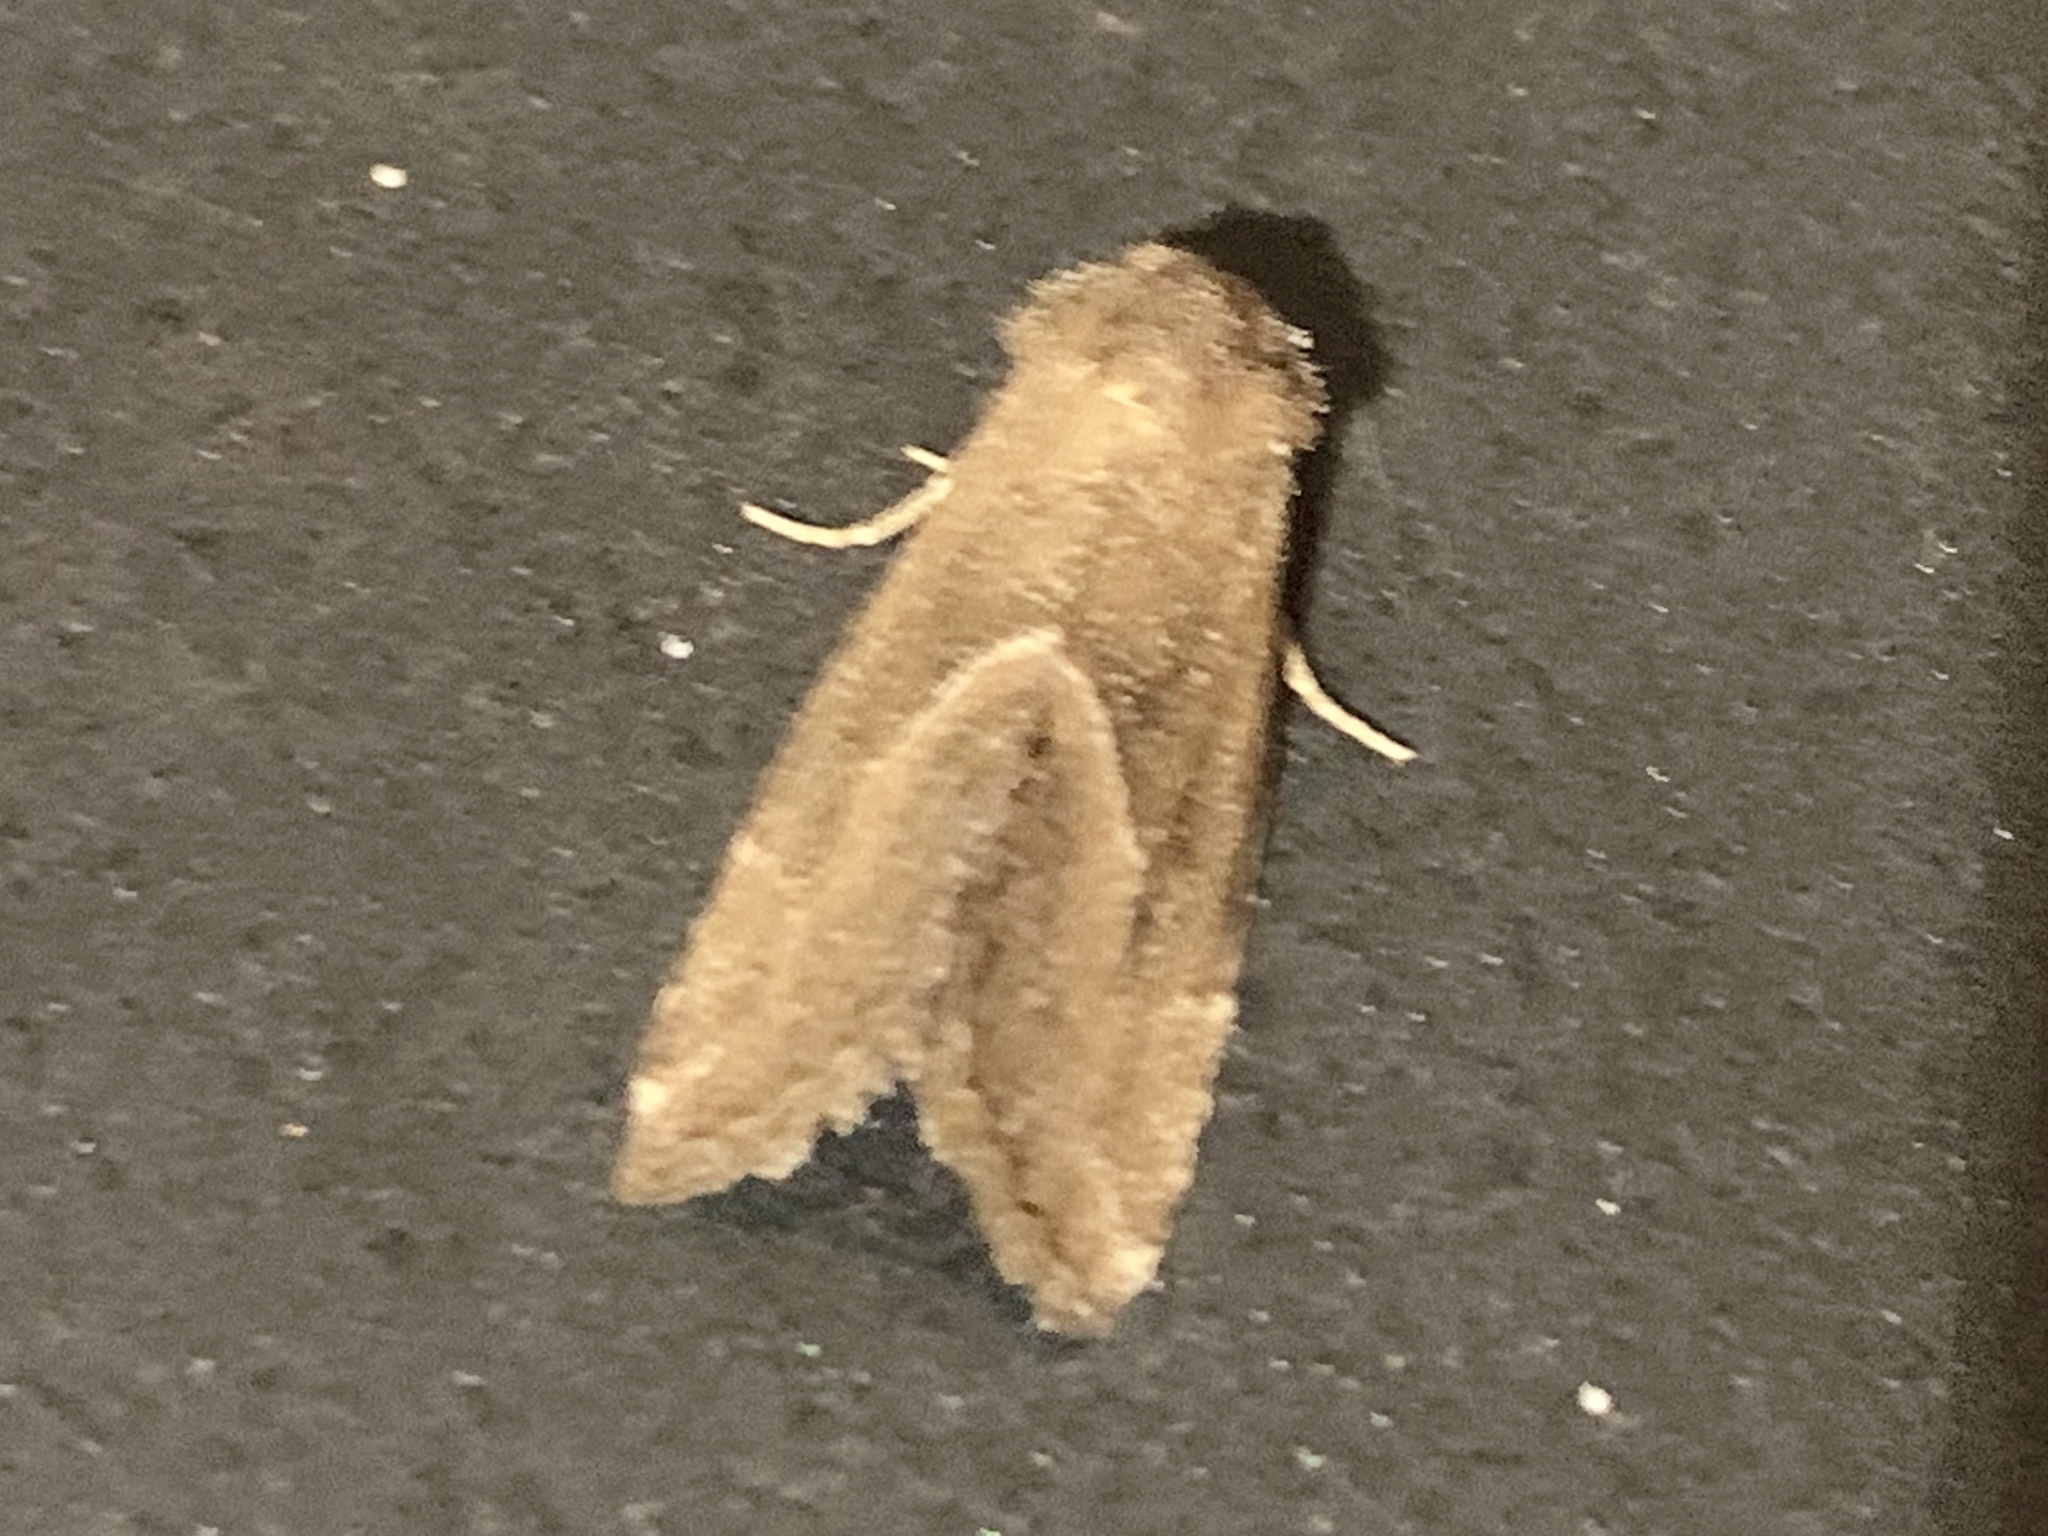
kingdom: Animalia
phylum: Arthropoda
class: Insecta
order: Lepidoptera
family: Noctuidae
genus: Plagiomimicus
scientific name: Plagiomimicus spumosum
